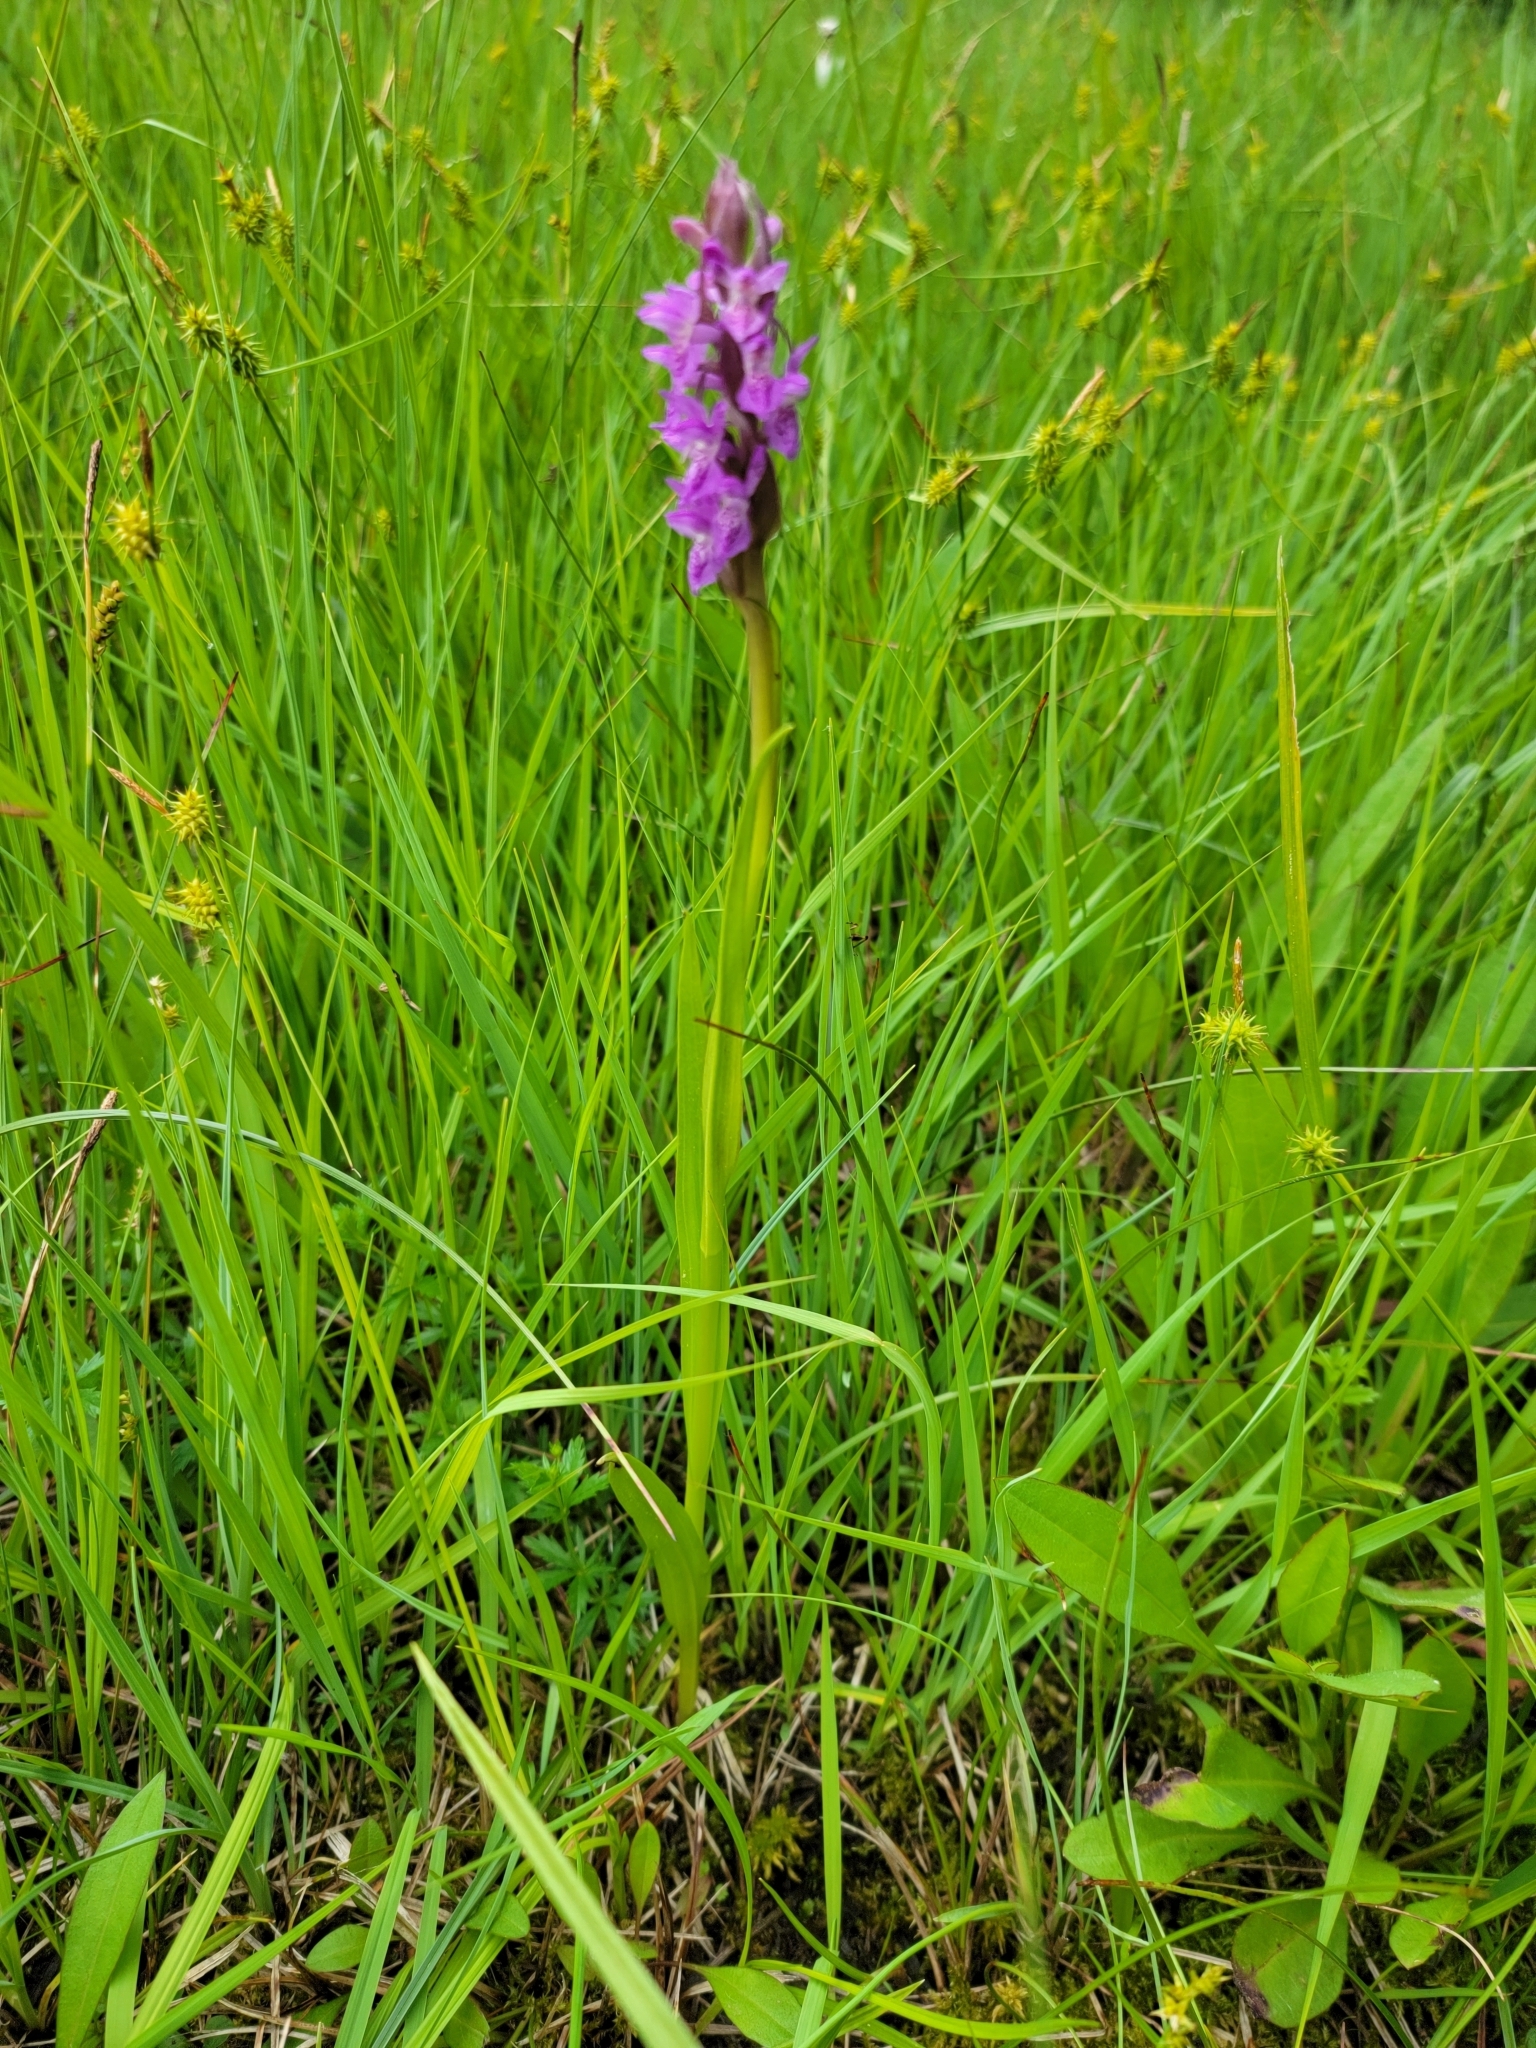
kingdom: Plantae
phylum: Tracheophyta
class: Liliopsida
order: Asparagales
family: Orchidaceae
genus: Dactylorhiza
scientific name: Dactylorhiza incarnata
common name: Early marsh-orchid
